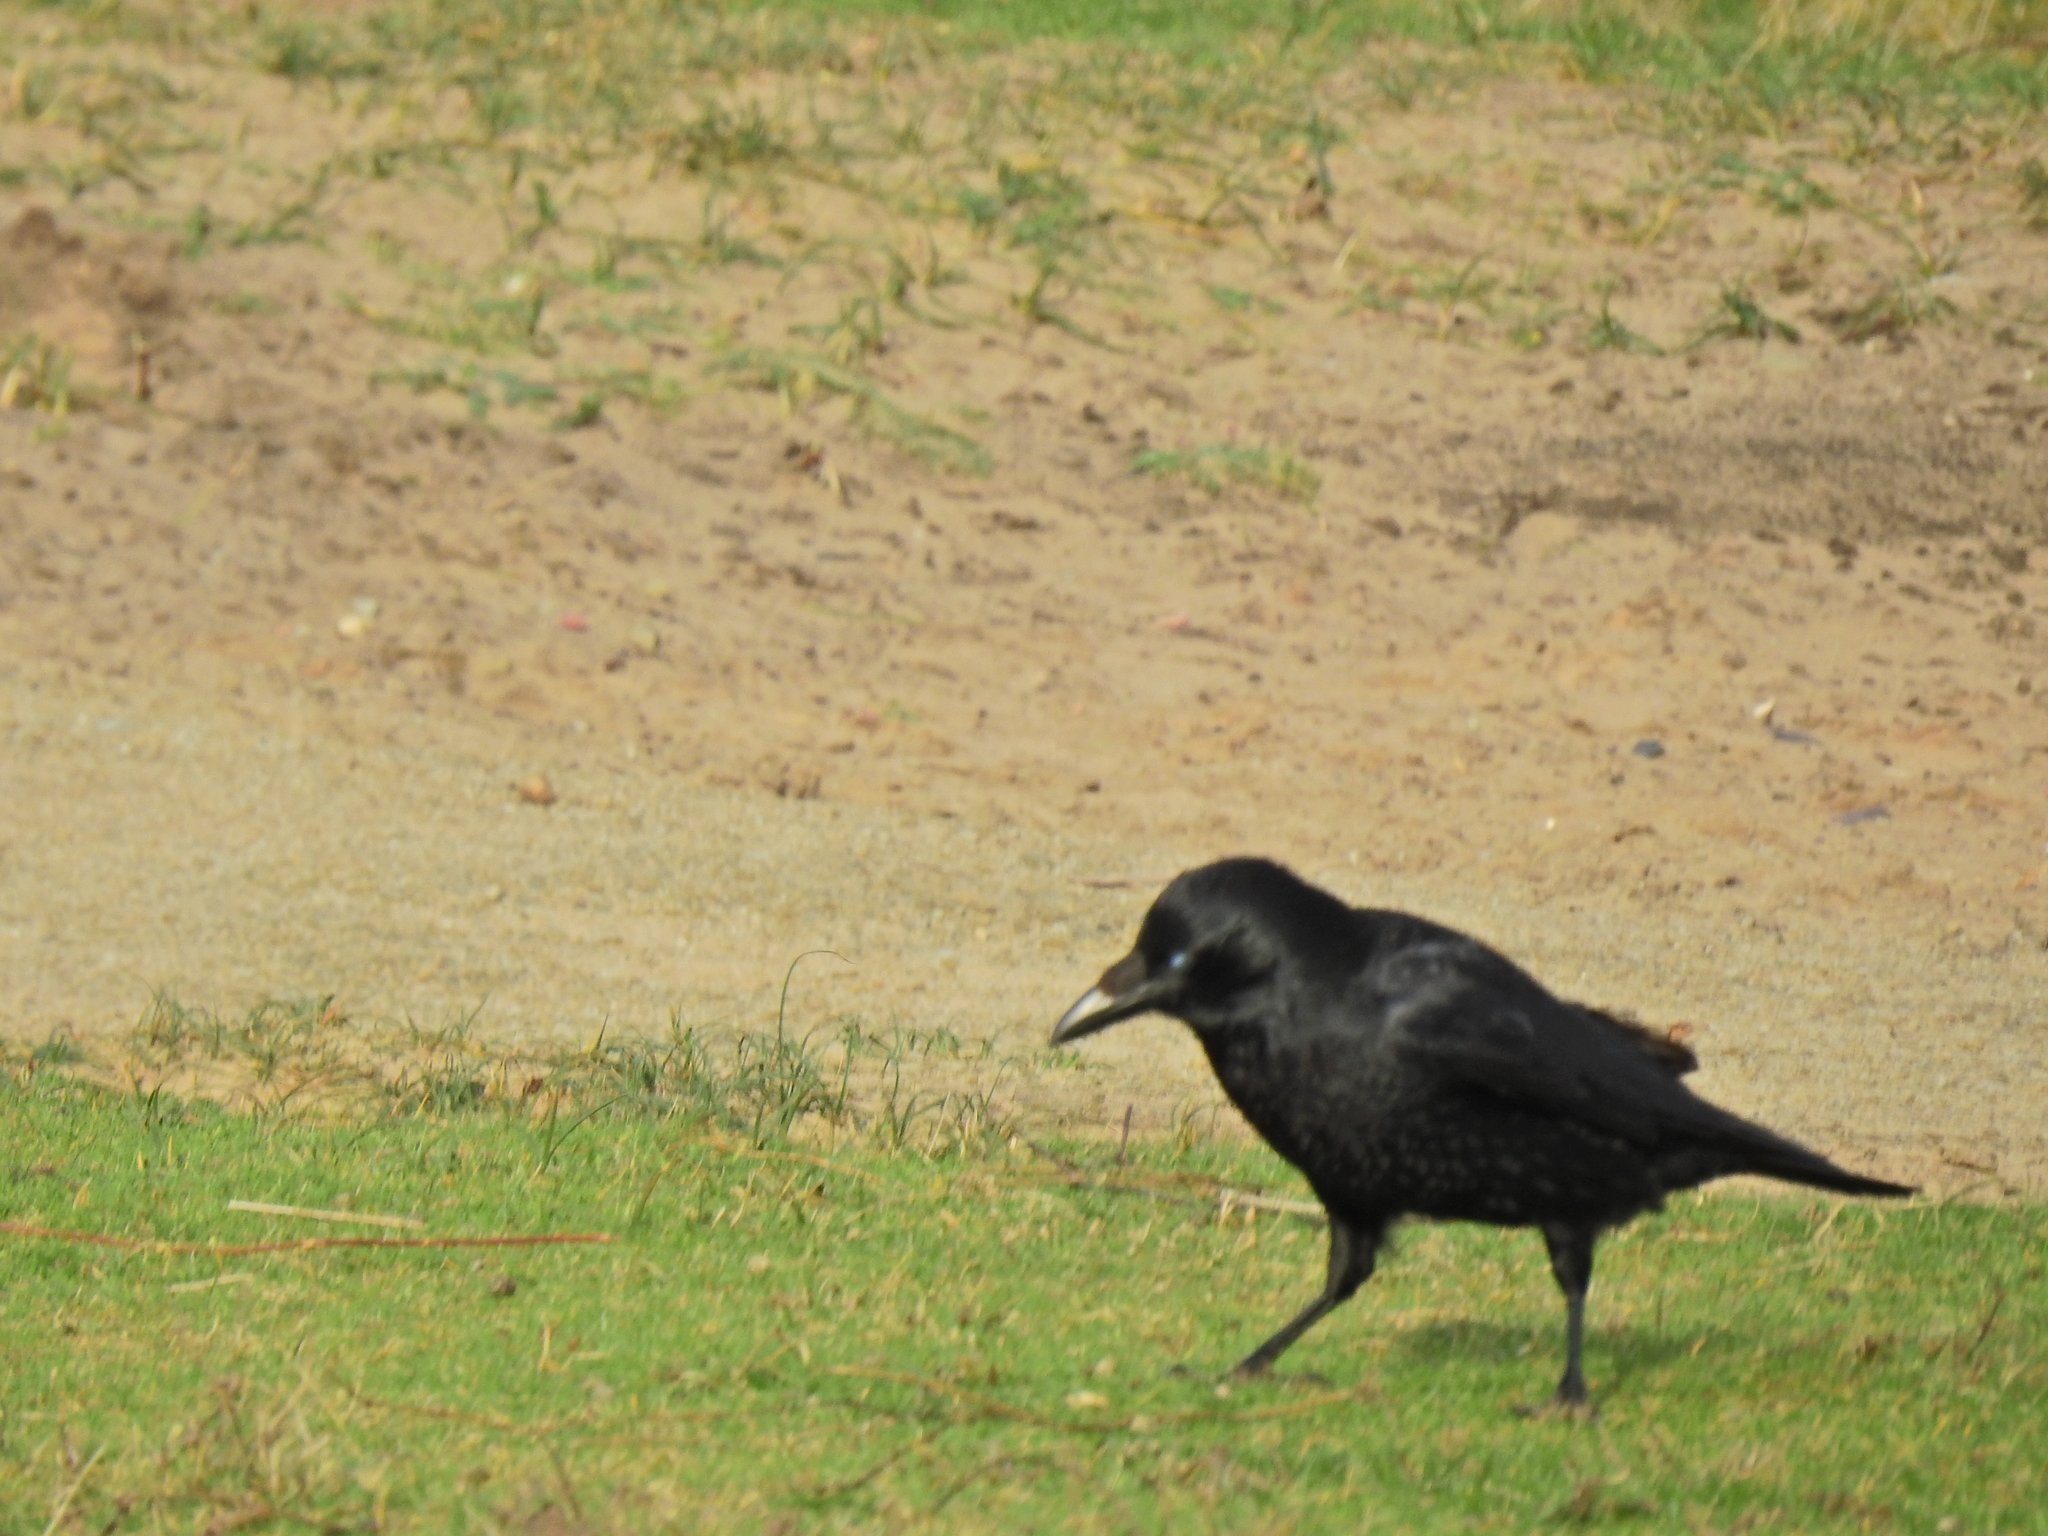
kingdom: Animalia
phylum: Chordata
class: Aves
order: Passeriformes
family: Corvidae
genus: Corvus
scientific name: Corvus corone
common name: Carrion crow
